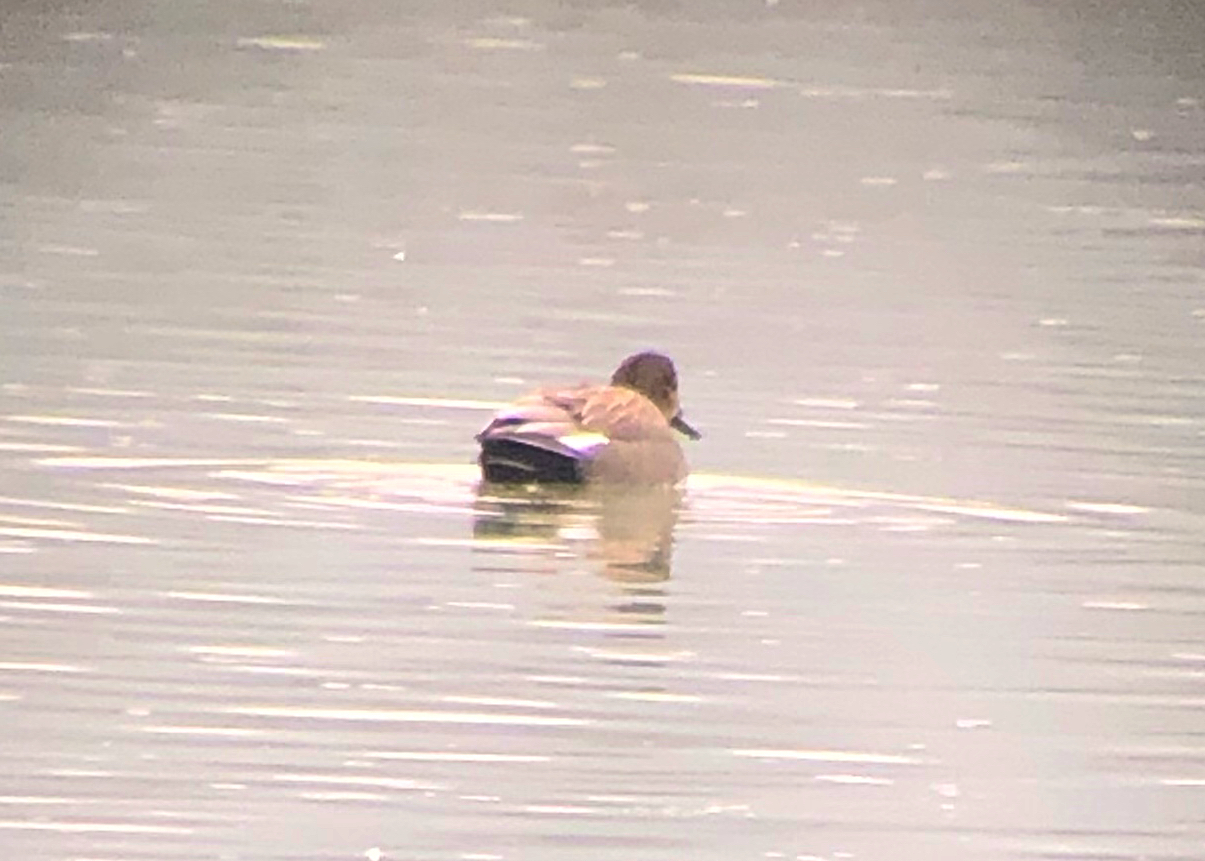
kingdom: Animalia
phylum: Chordata
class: Aves
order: Anseriformes
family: Anatidae
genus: Mareca
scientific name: Mareca strepera
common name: Gadwall
